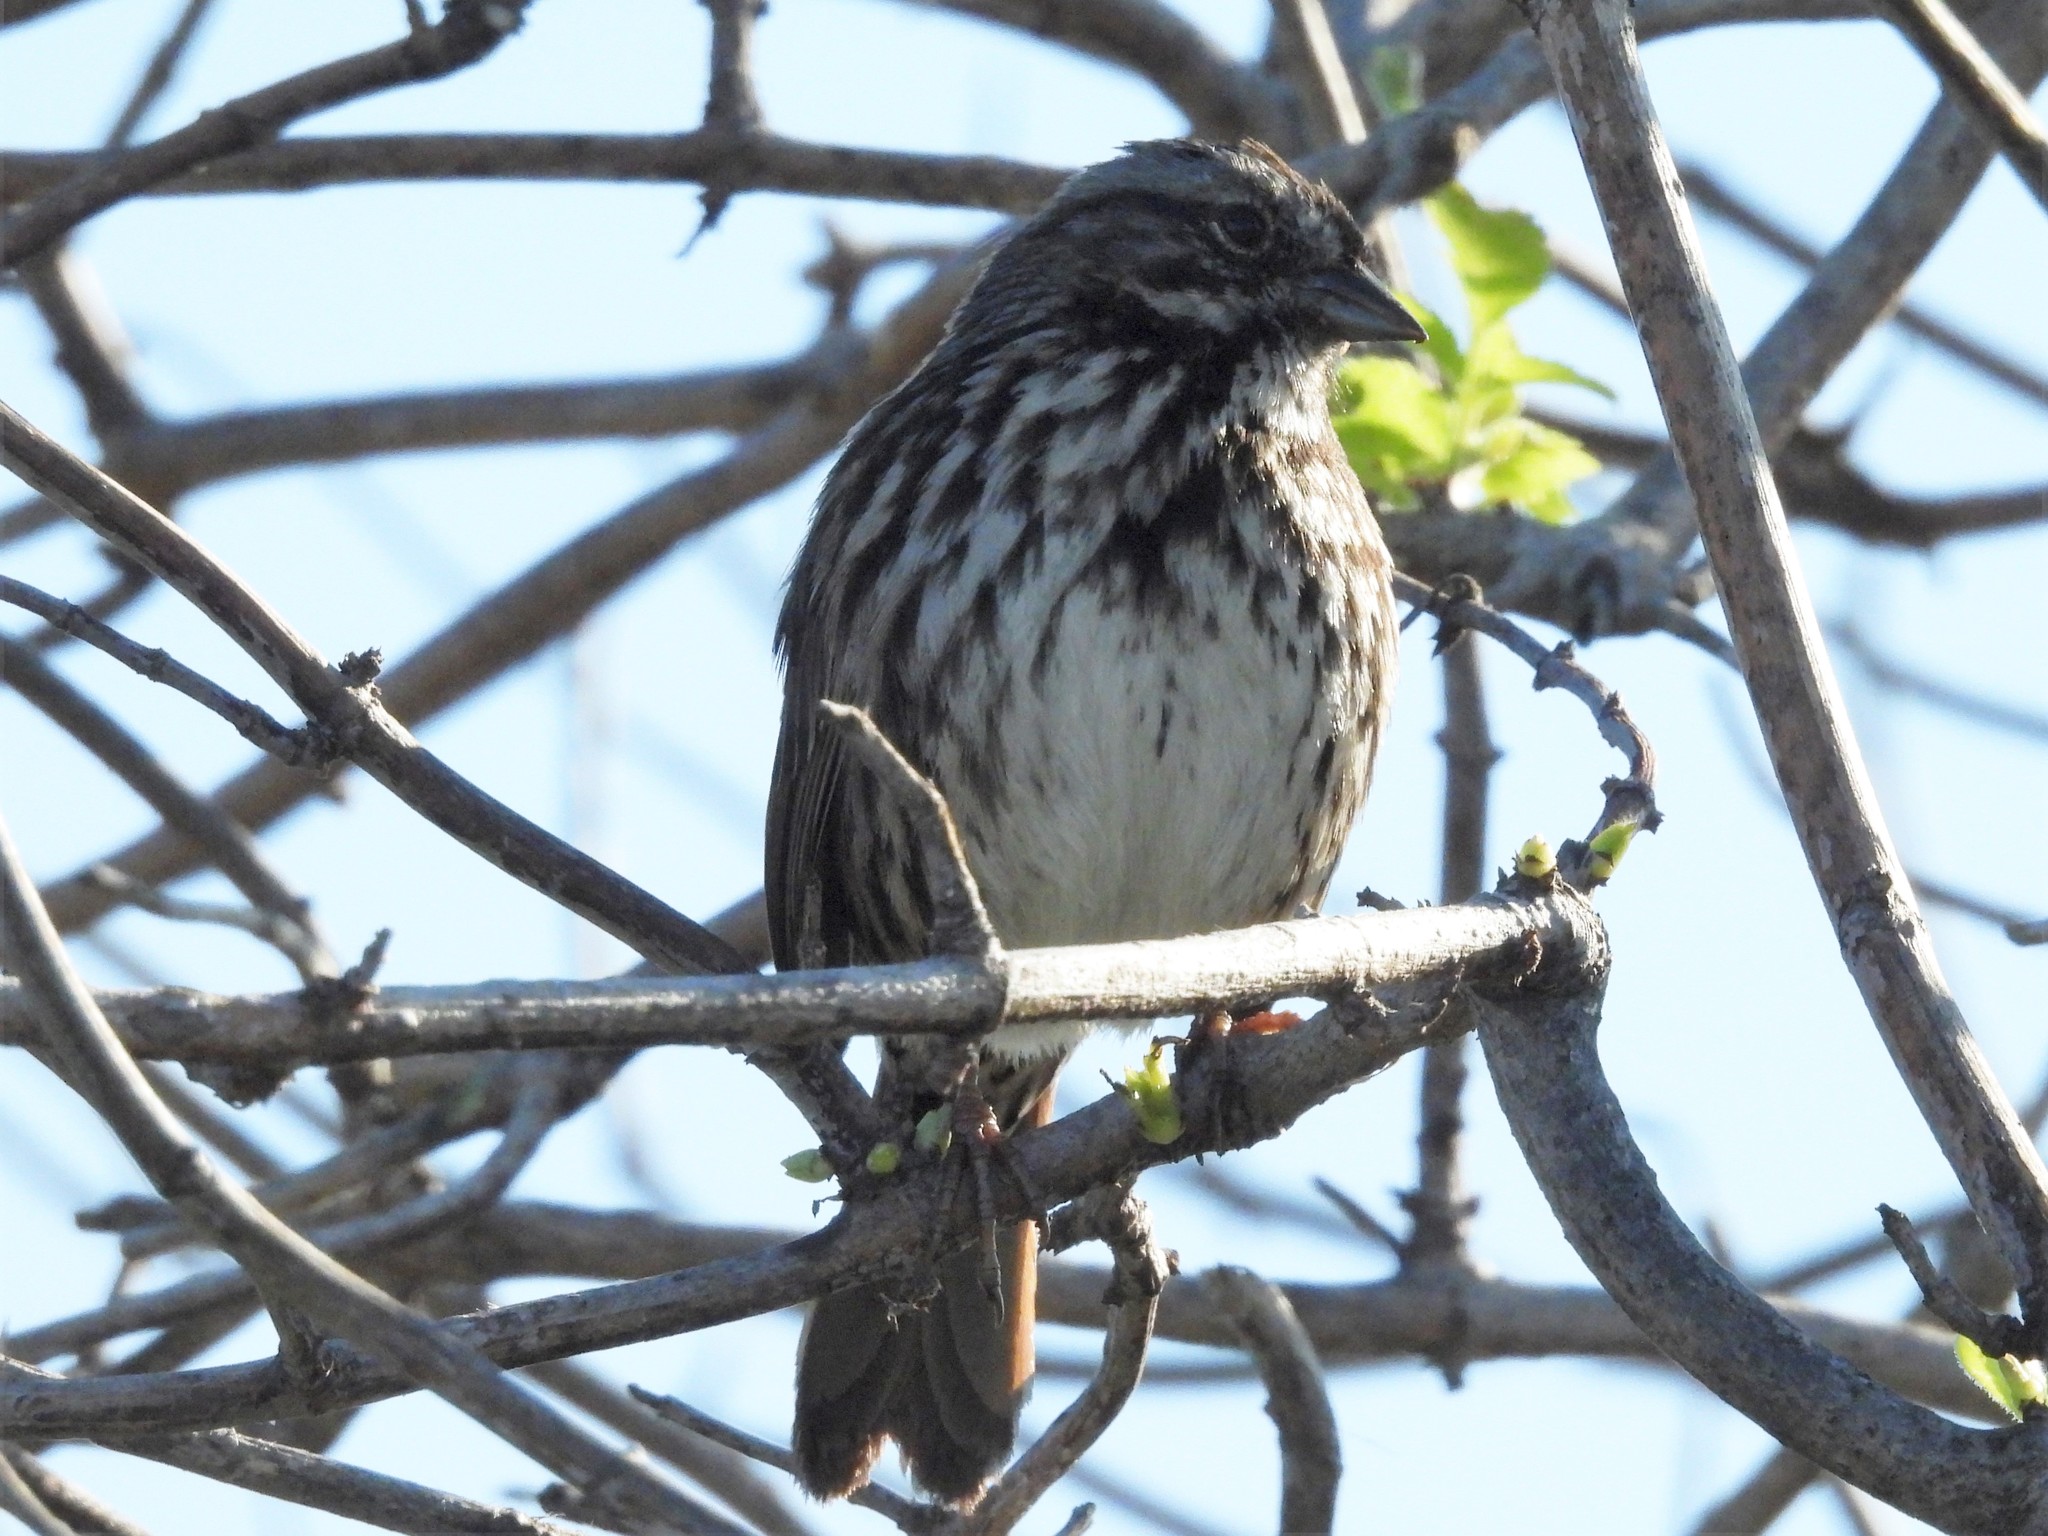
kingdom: Animalia
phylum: Chordata
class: Aves
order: Passeriformes
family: Passerellidae
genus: Melospiza
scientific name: Melospiza melodia
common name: Song sparrow
